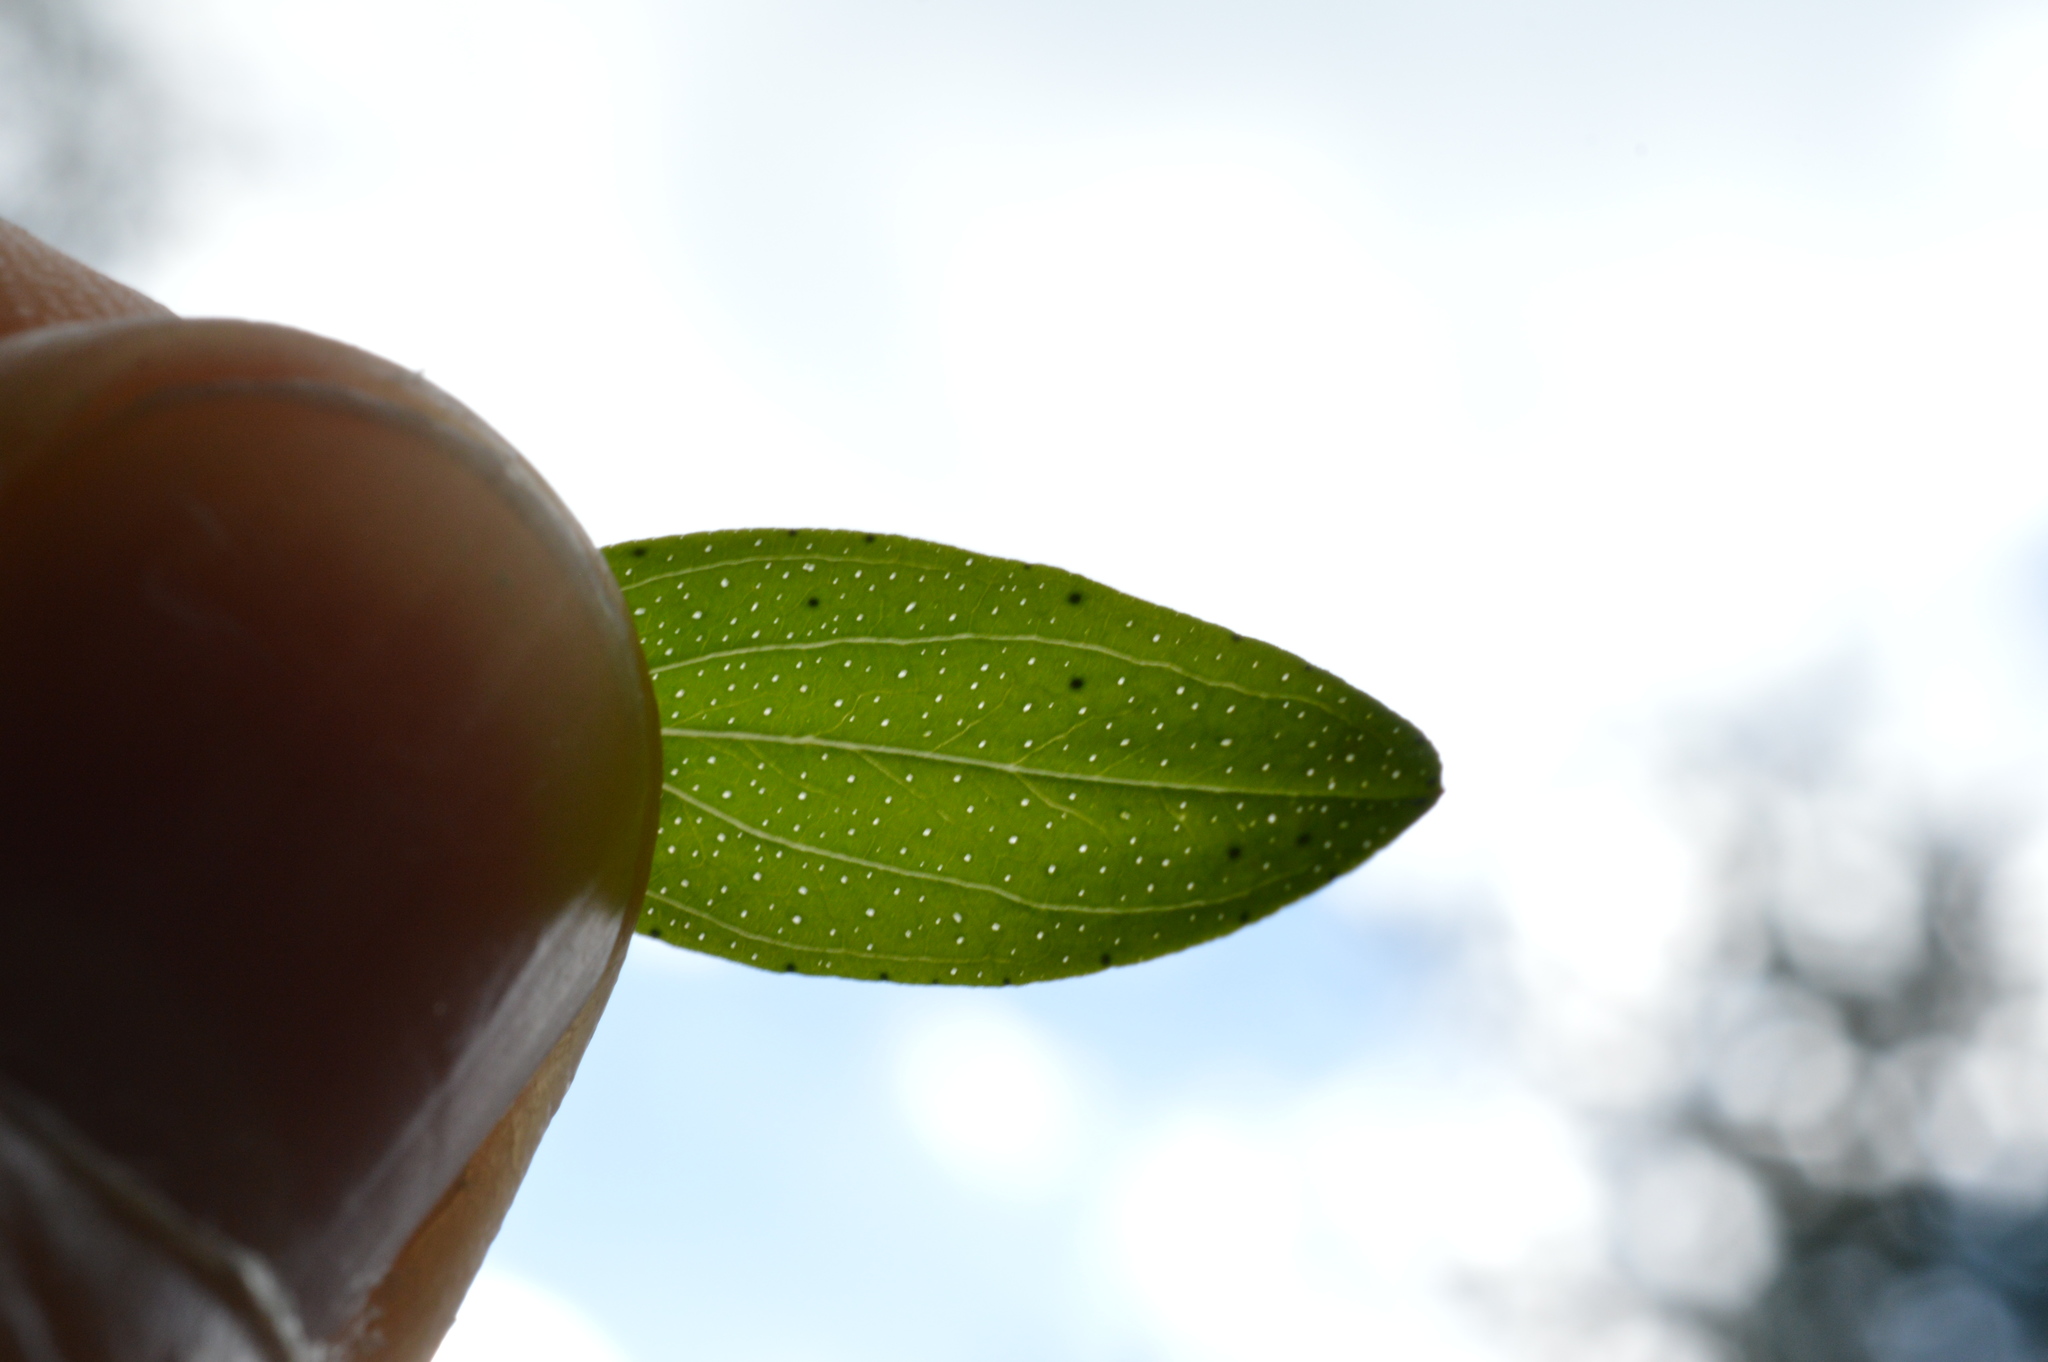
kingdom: Plantae
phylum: Tracheophyta
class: Magnoliopsida
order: Malpighiales
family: Hypericaceae
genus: Hypericum
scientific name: Hypericum perforatum
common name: Common st. johnswort
